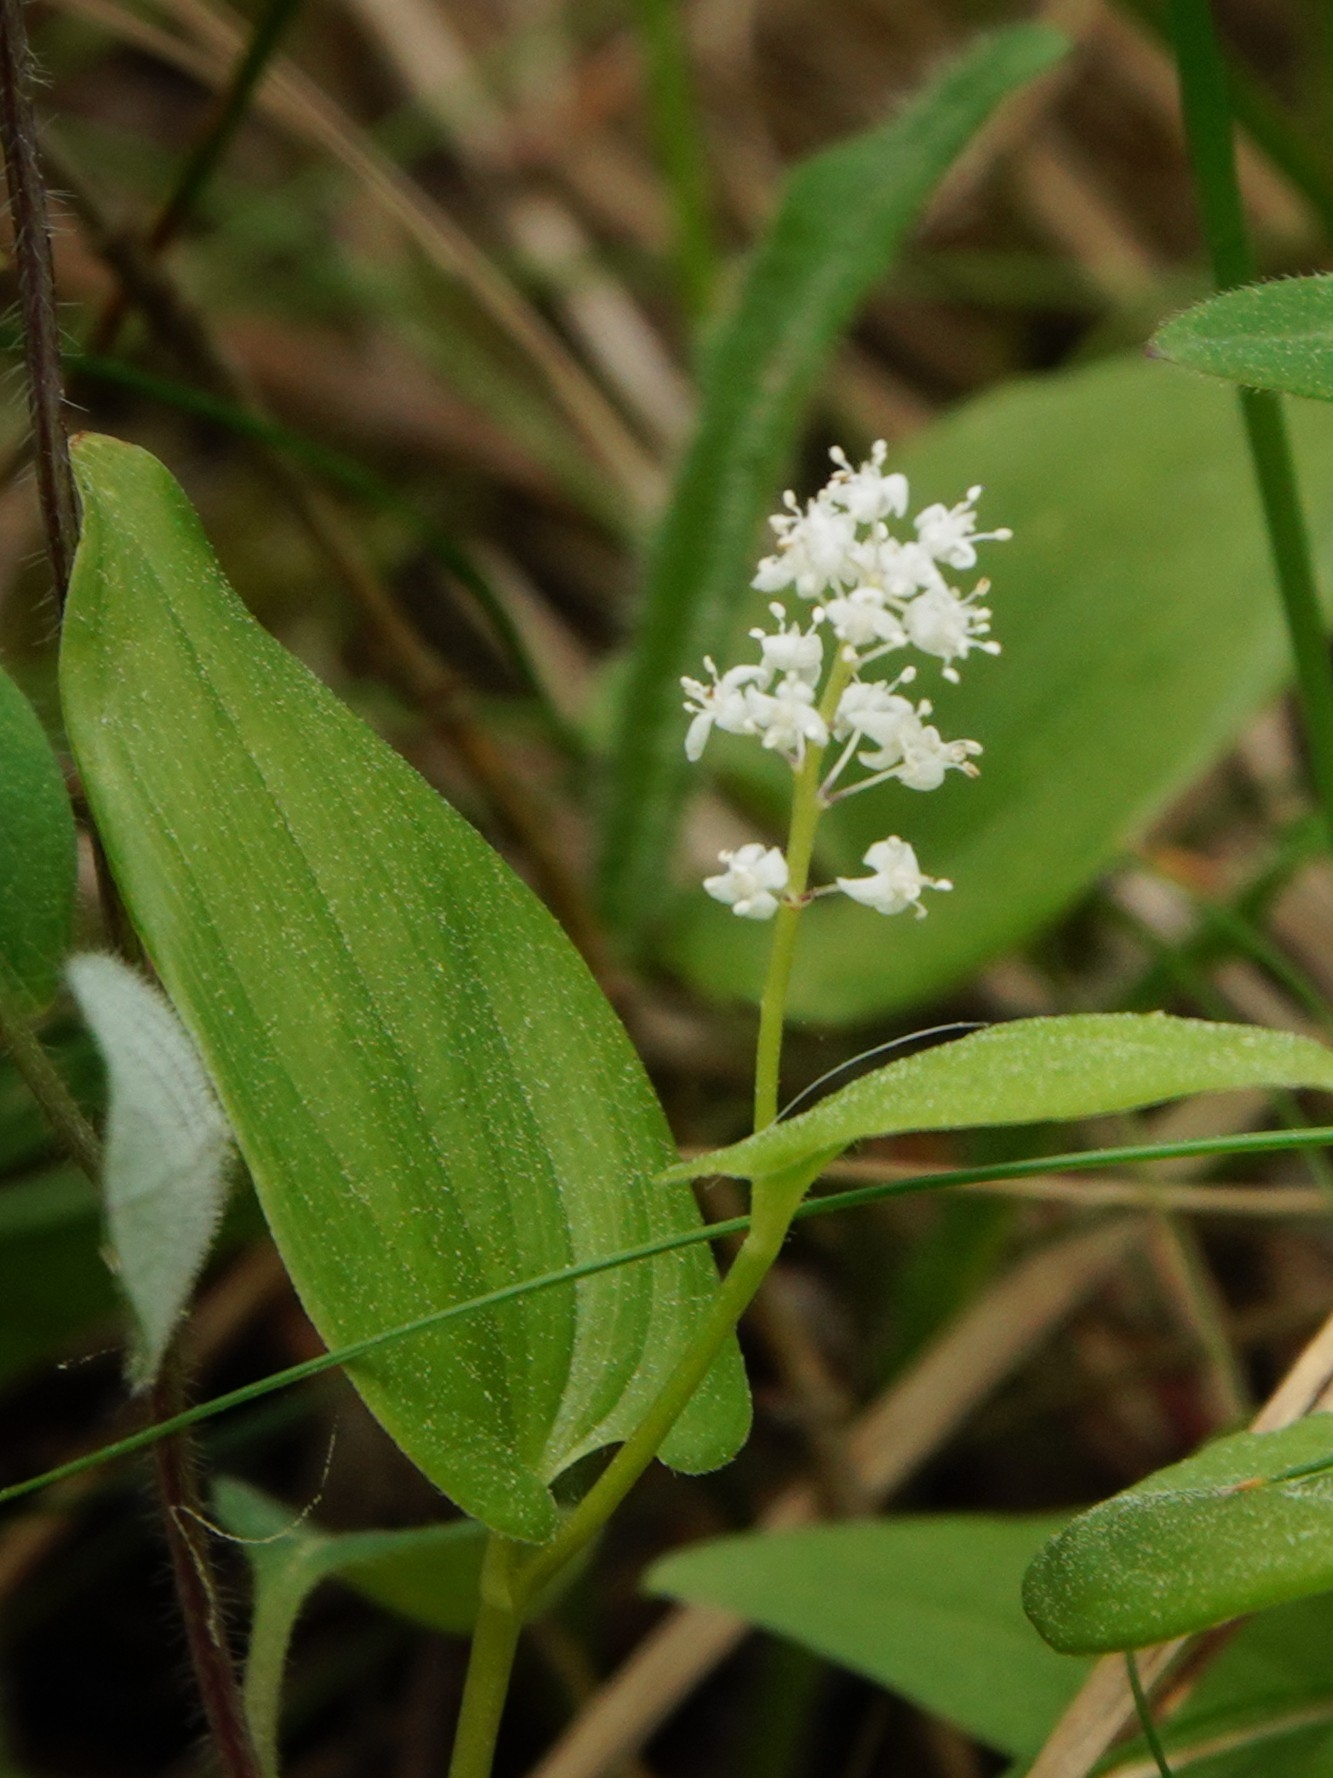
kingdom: Plantae
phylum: Tracheophyta
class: Liliopsida
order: Asparagales
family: Asparagaceae
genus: Maianthemum
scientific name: Maianthemum bifolium
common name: May lily
